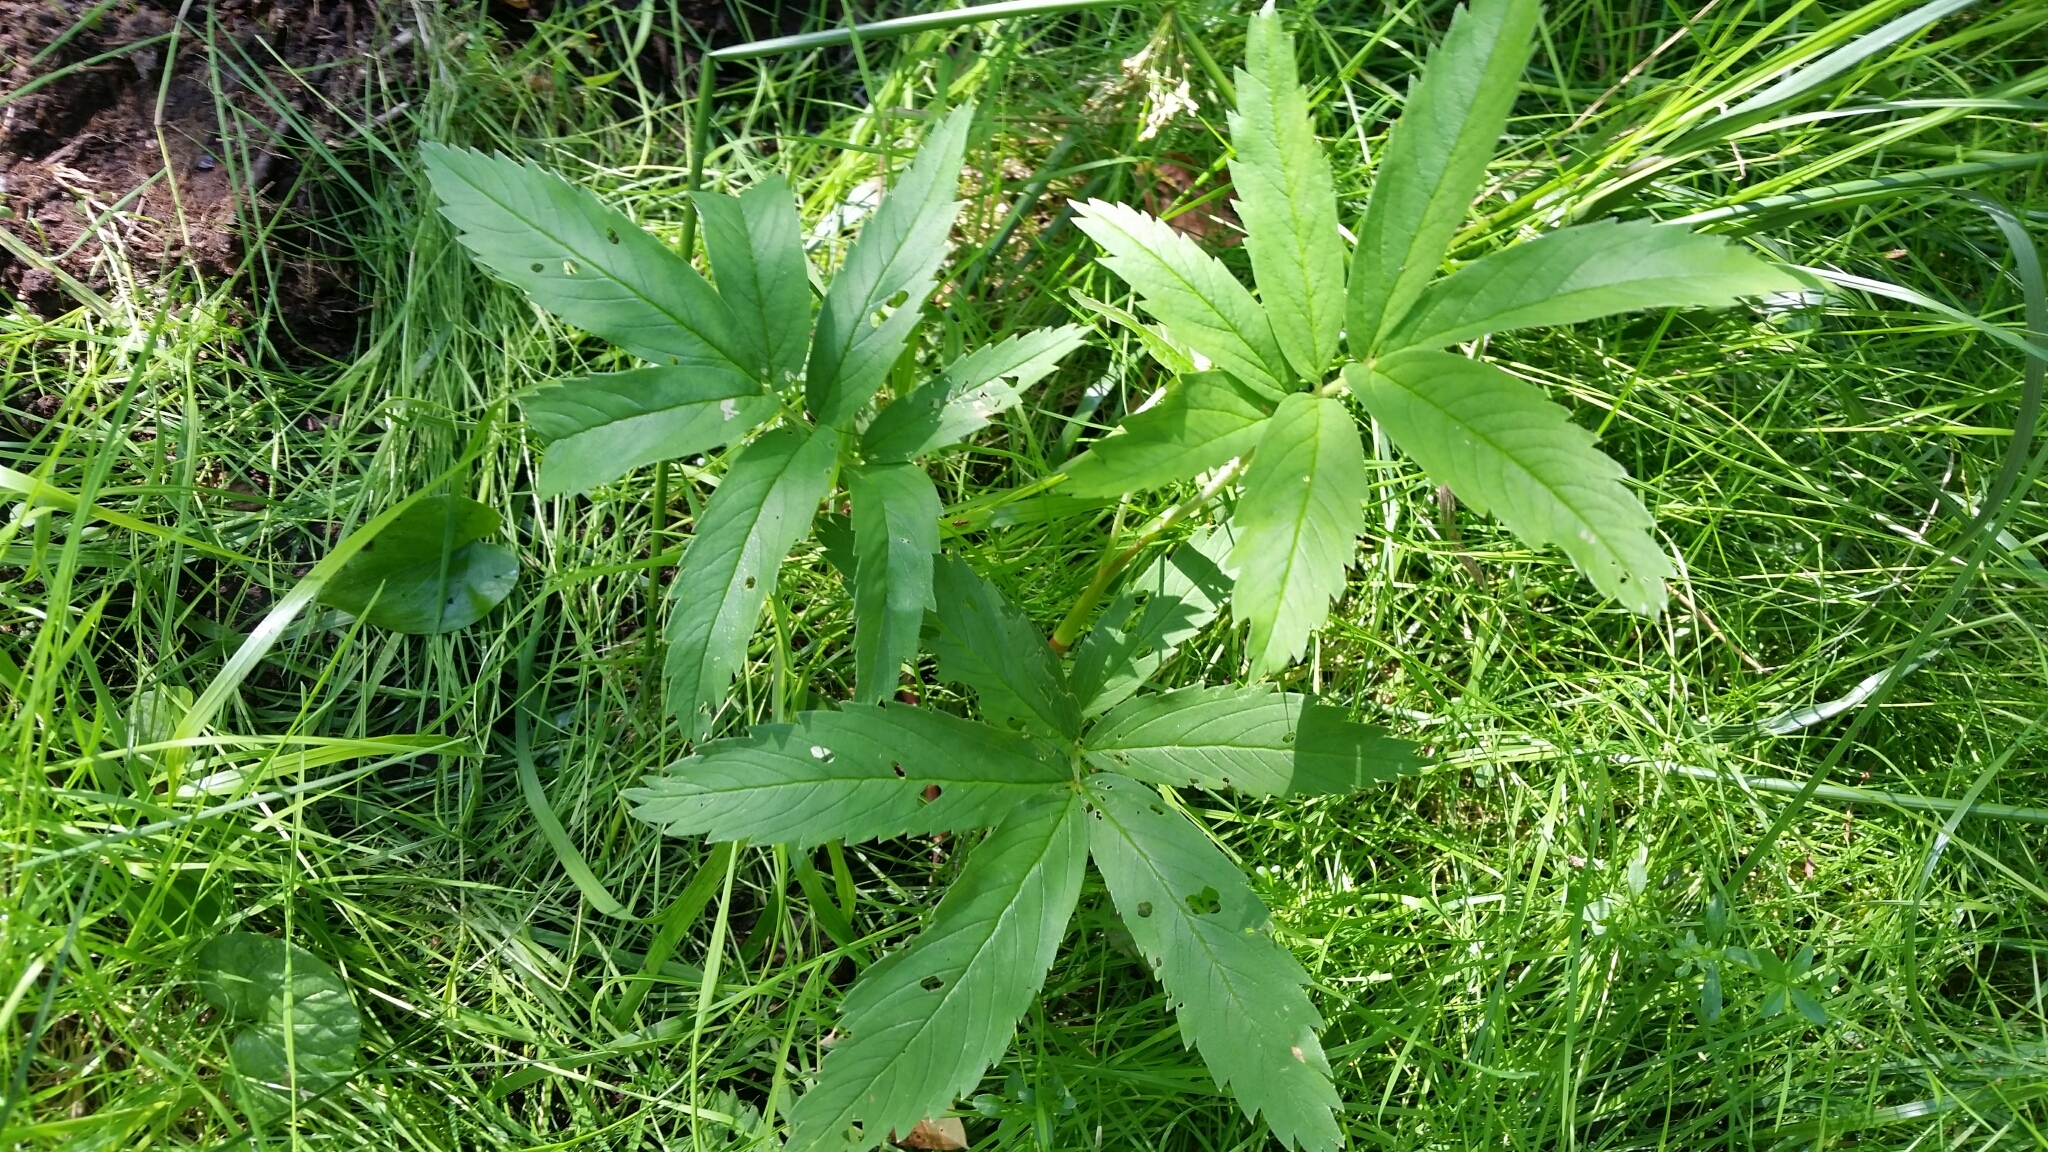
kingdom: Plantae
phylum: Tracheophyta
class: Magnoliopsida
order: Rosales
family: Rosaceae
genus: Comarum
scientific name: Comarum palustre
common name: Marsh cinquefoil
